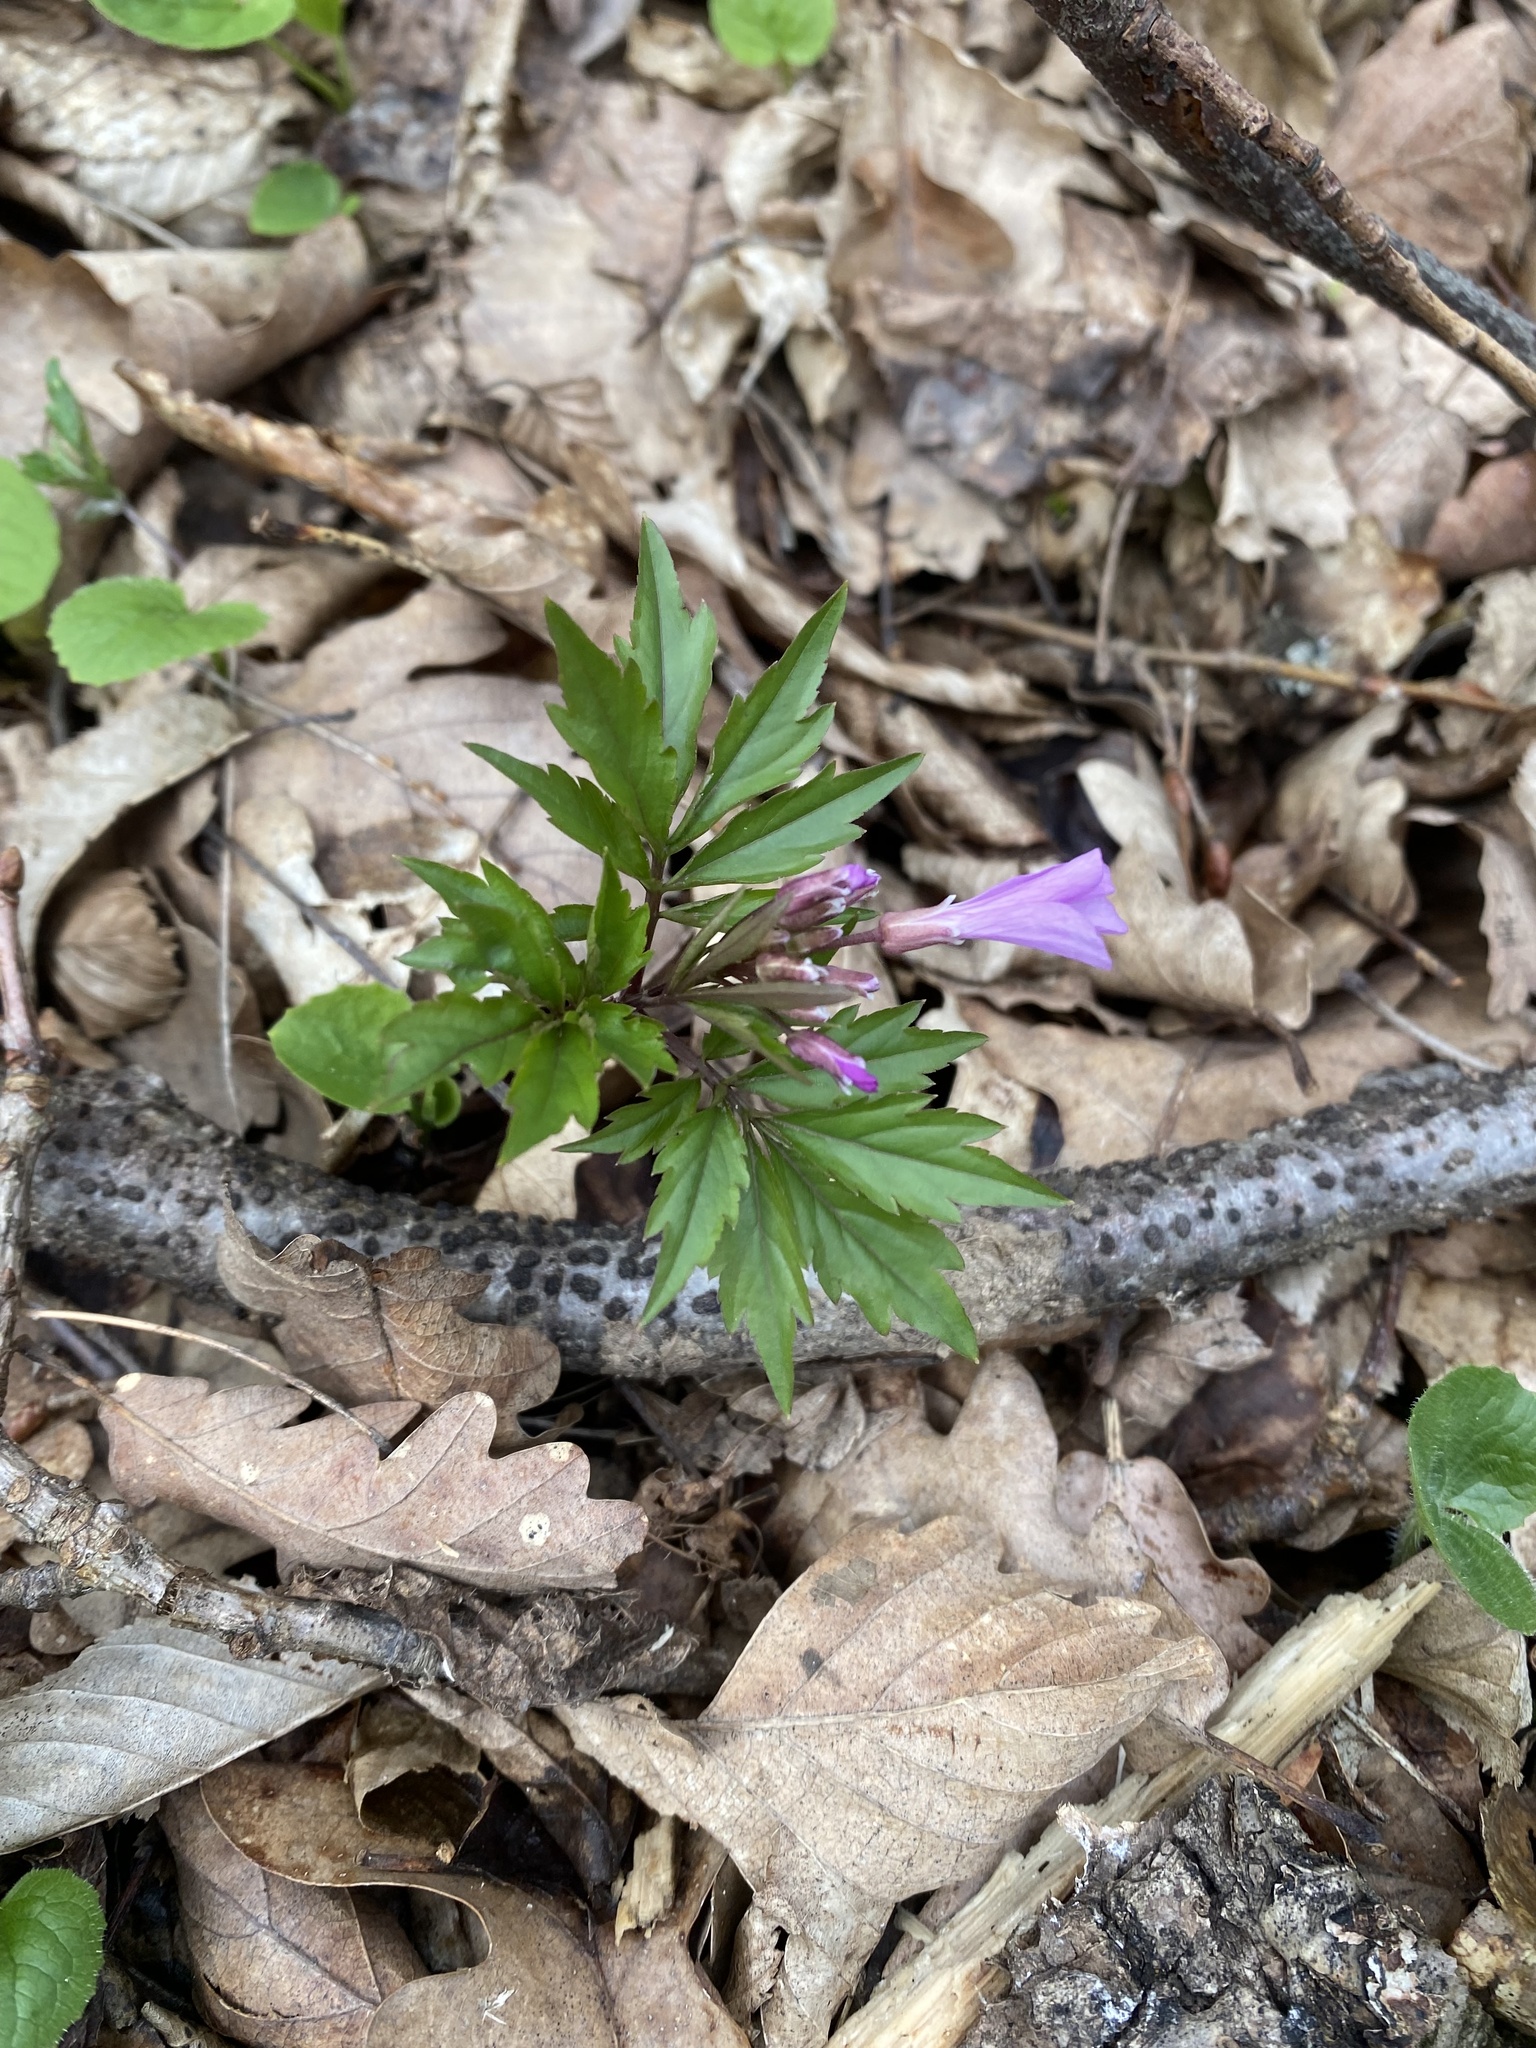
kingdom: Plantae
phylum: Tracheophyta
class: Magnoliopsida
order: Brassicales
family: Brassicaceae
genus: Cardamine
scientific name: Cardamine quinquefolia
